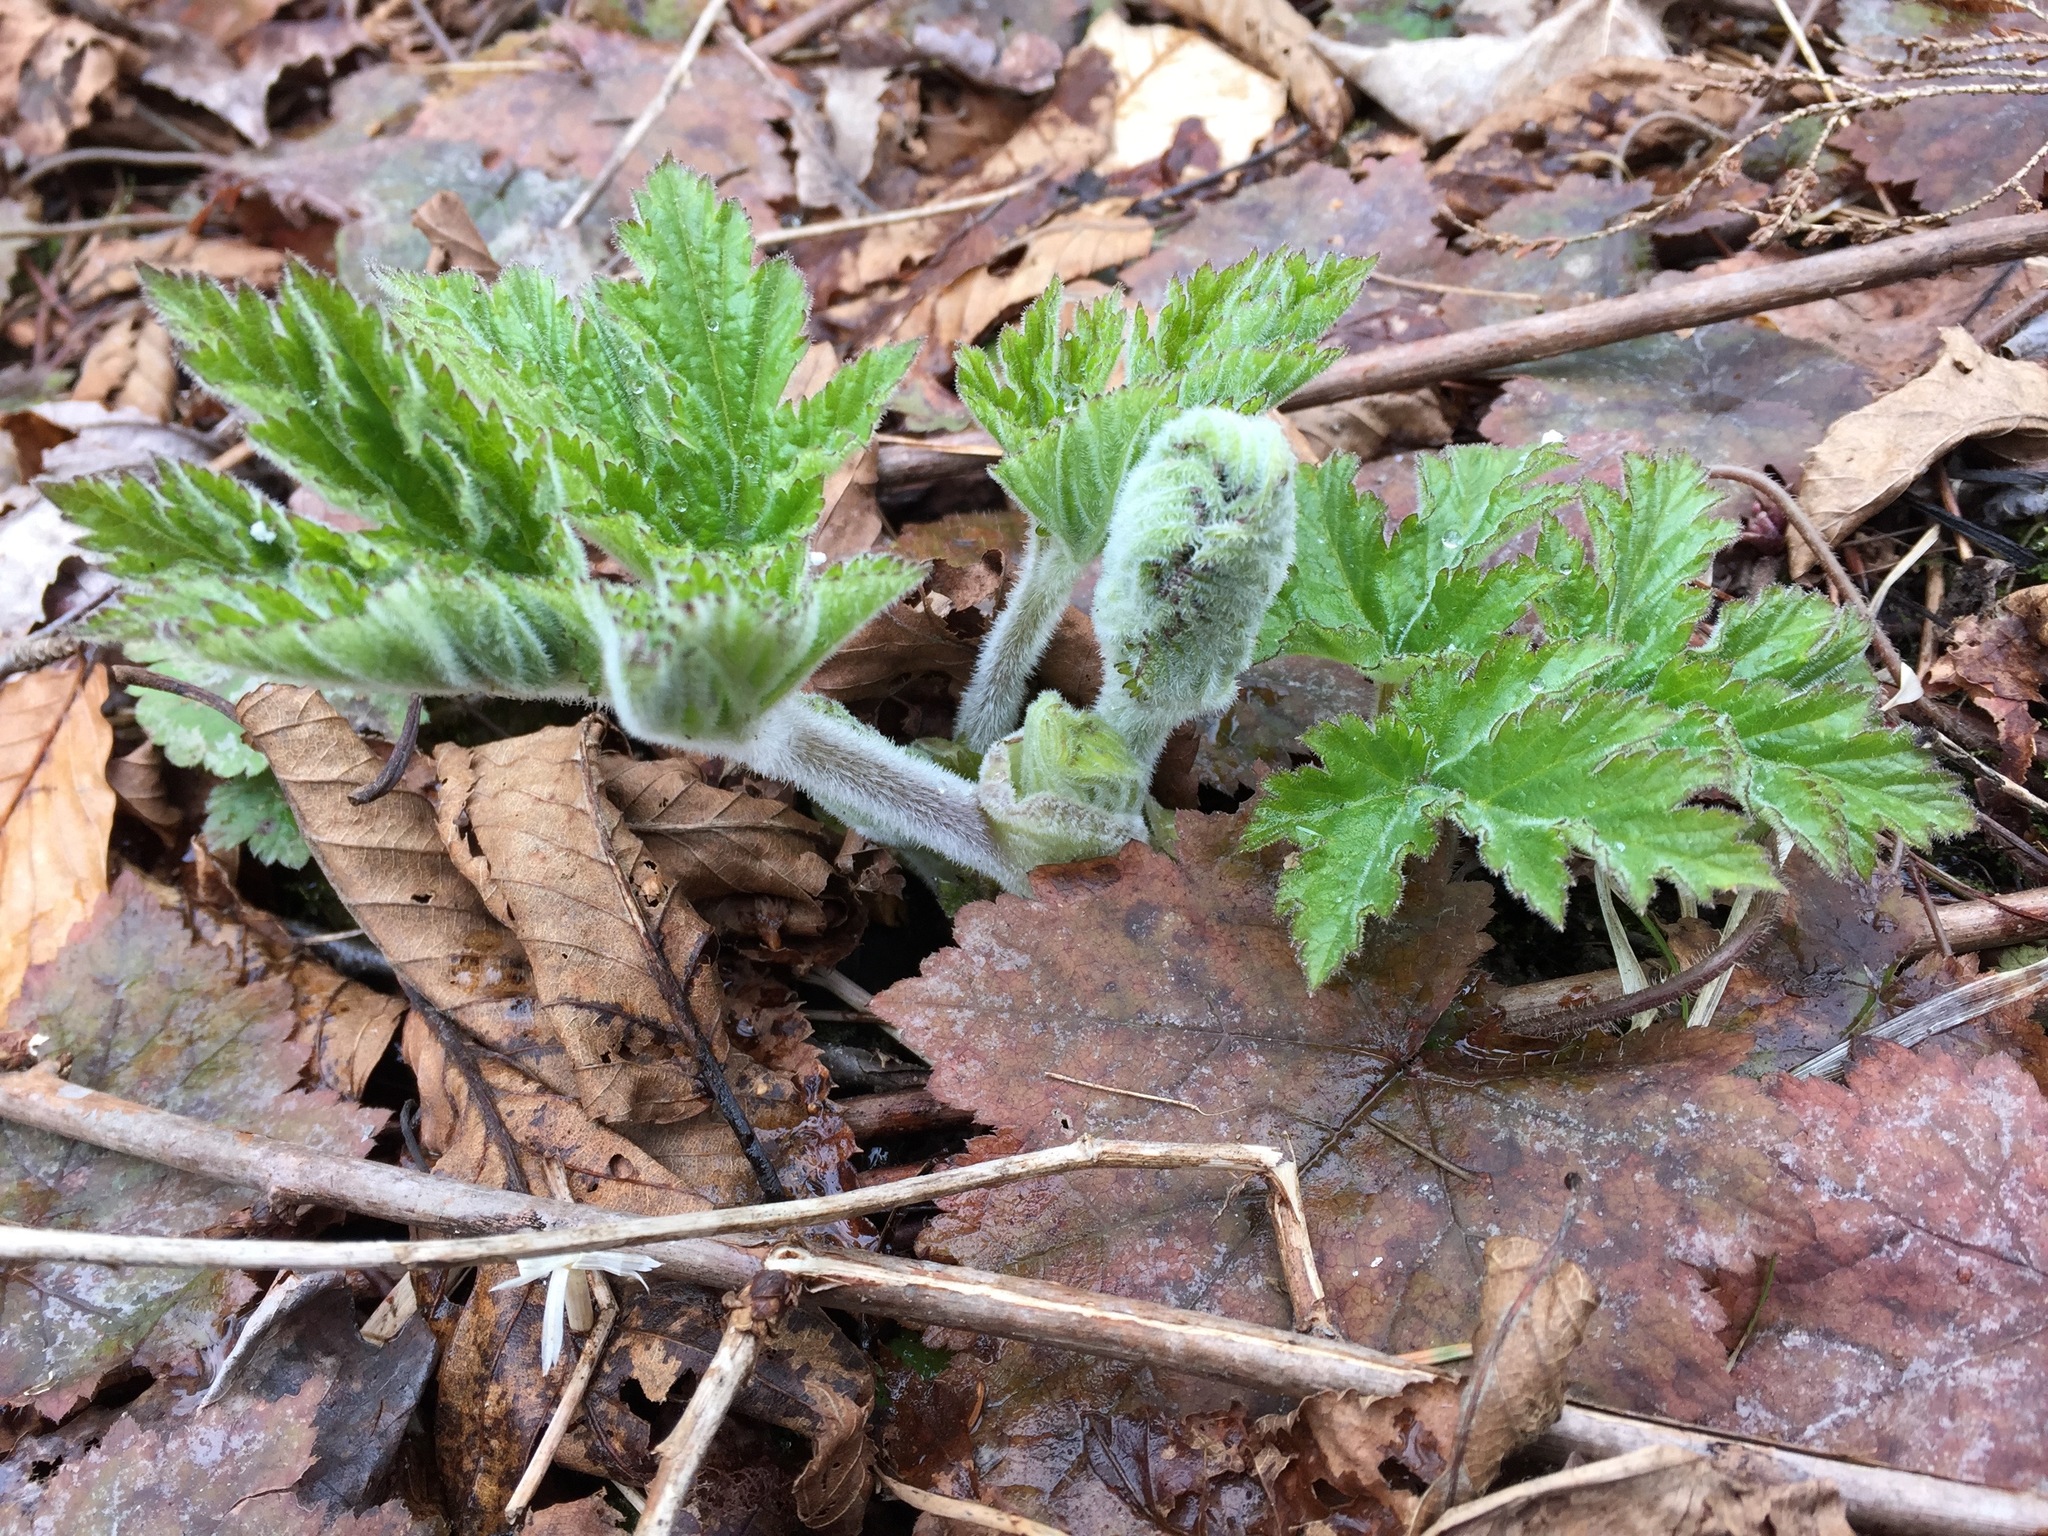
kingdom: Plantae
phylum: Tracheophyta
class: Magnoliopsida
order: Apiales
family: Apiaceae
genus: Heracleum
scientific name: Heracleum maximum
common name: American cow parsnip
